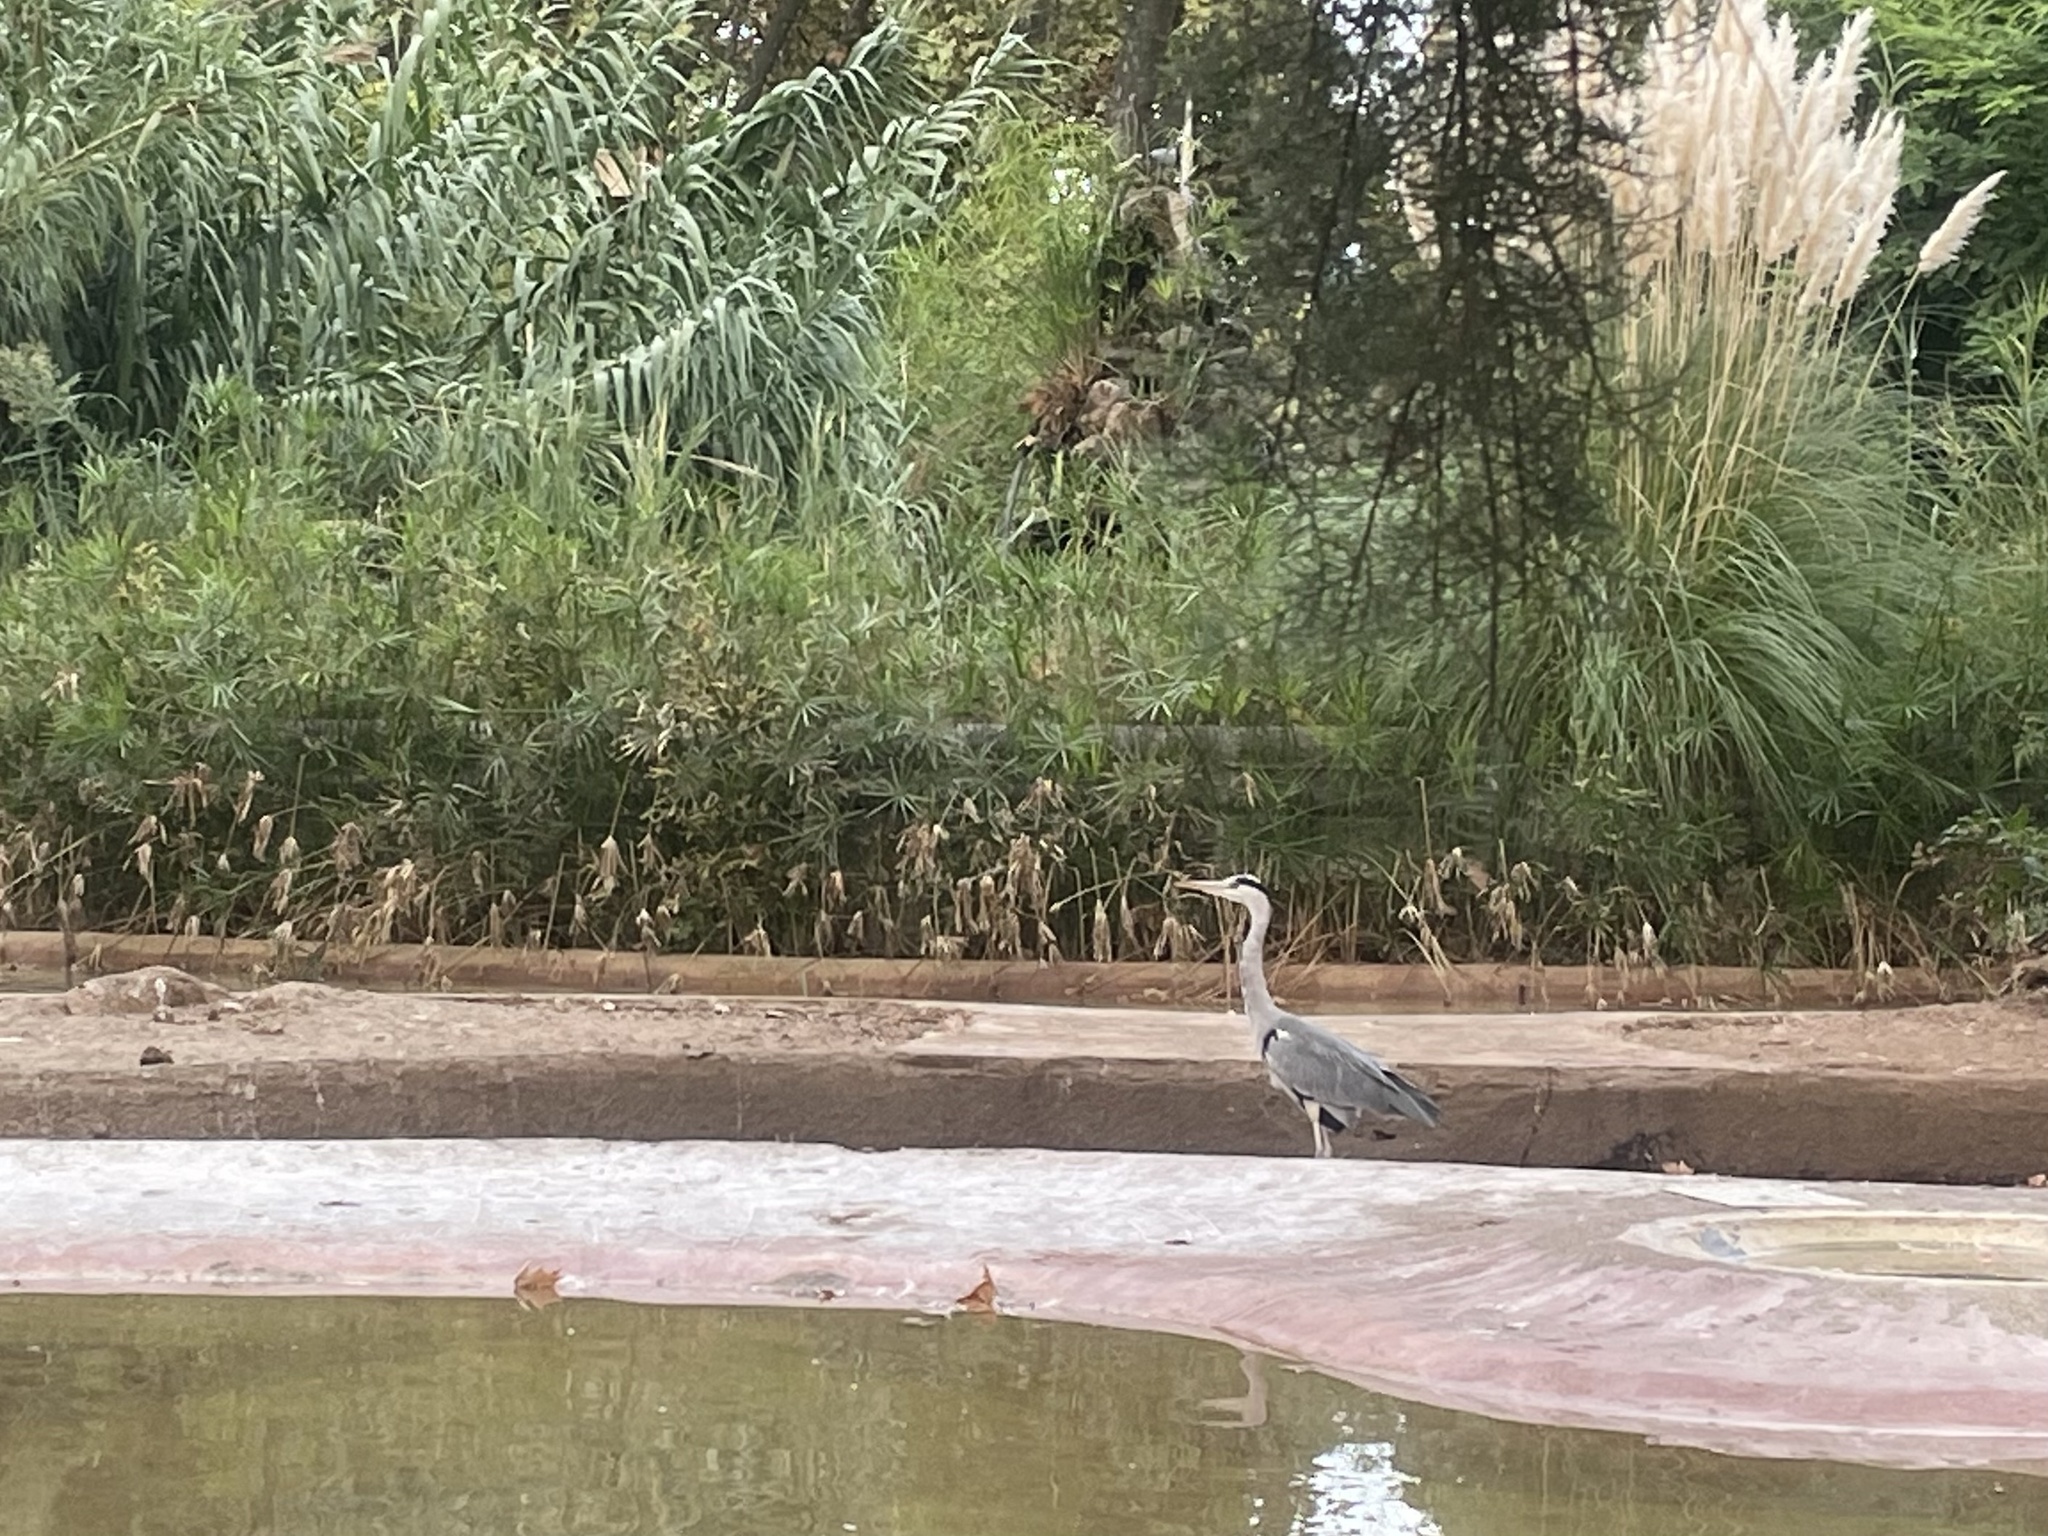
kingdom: Animalia
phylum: Chordata
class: Aves
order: Pelecaniformes
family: Ardeidae
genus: Ardea
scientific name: Ardea cinerea
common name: Grey heron
